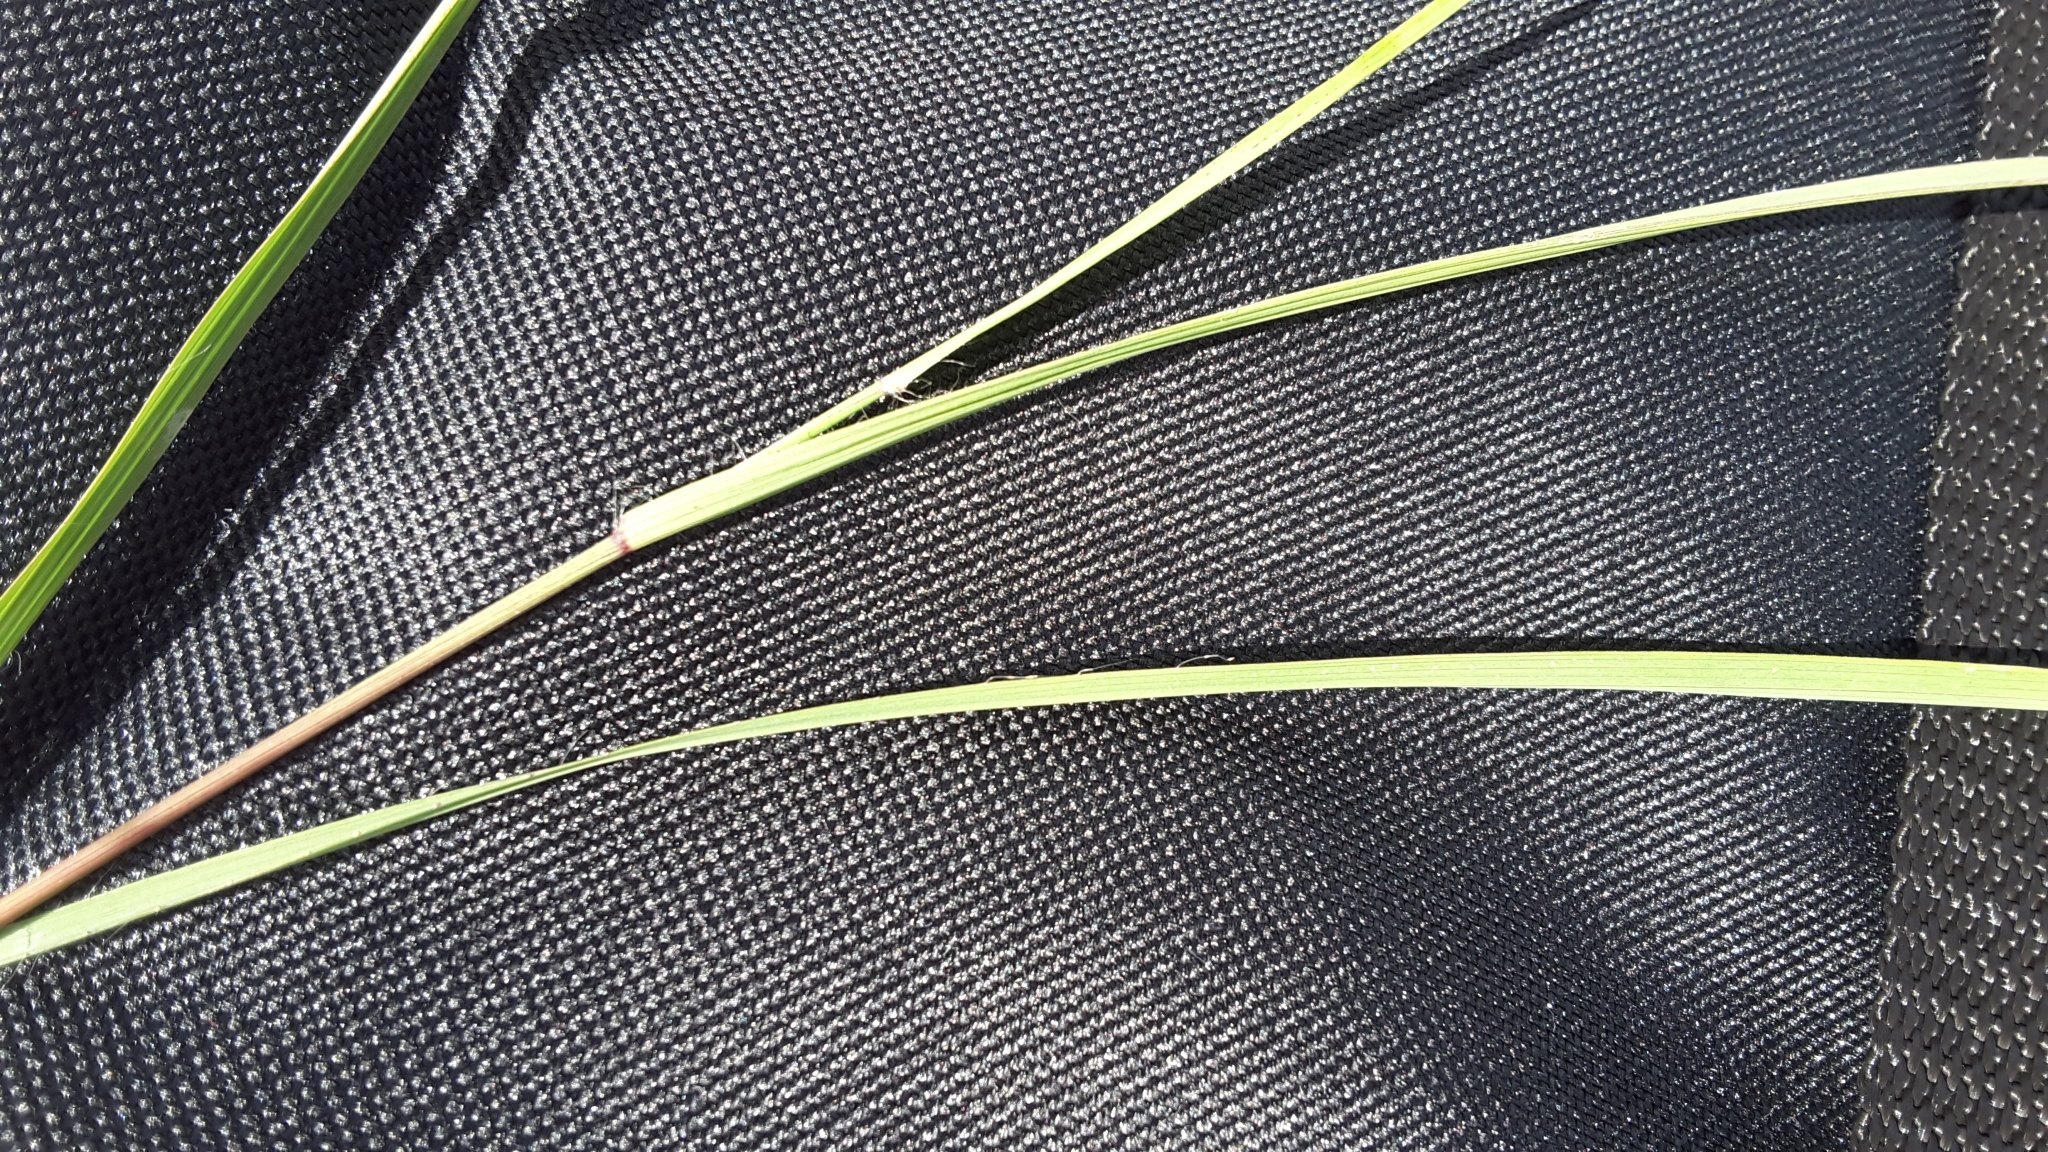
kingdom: Plantae
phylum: Tracheophyta
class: Liliopsida
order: Poales
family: Poaceae
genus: Bouteloua
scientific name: Bouteloua curtipendula
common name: Side-oats grama
